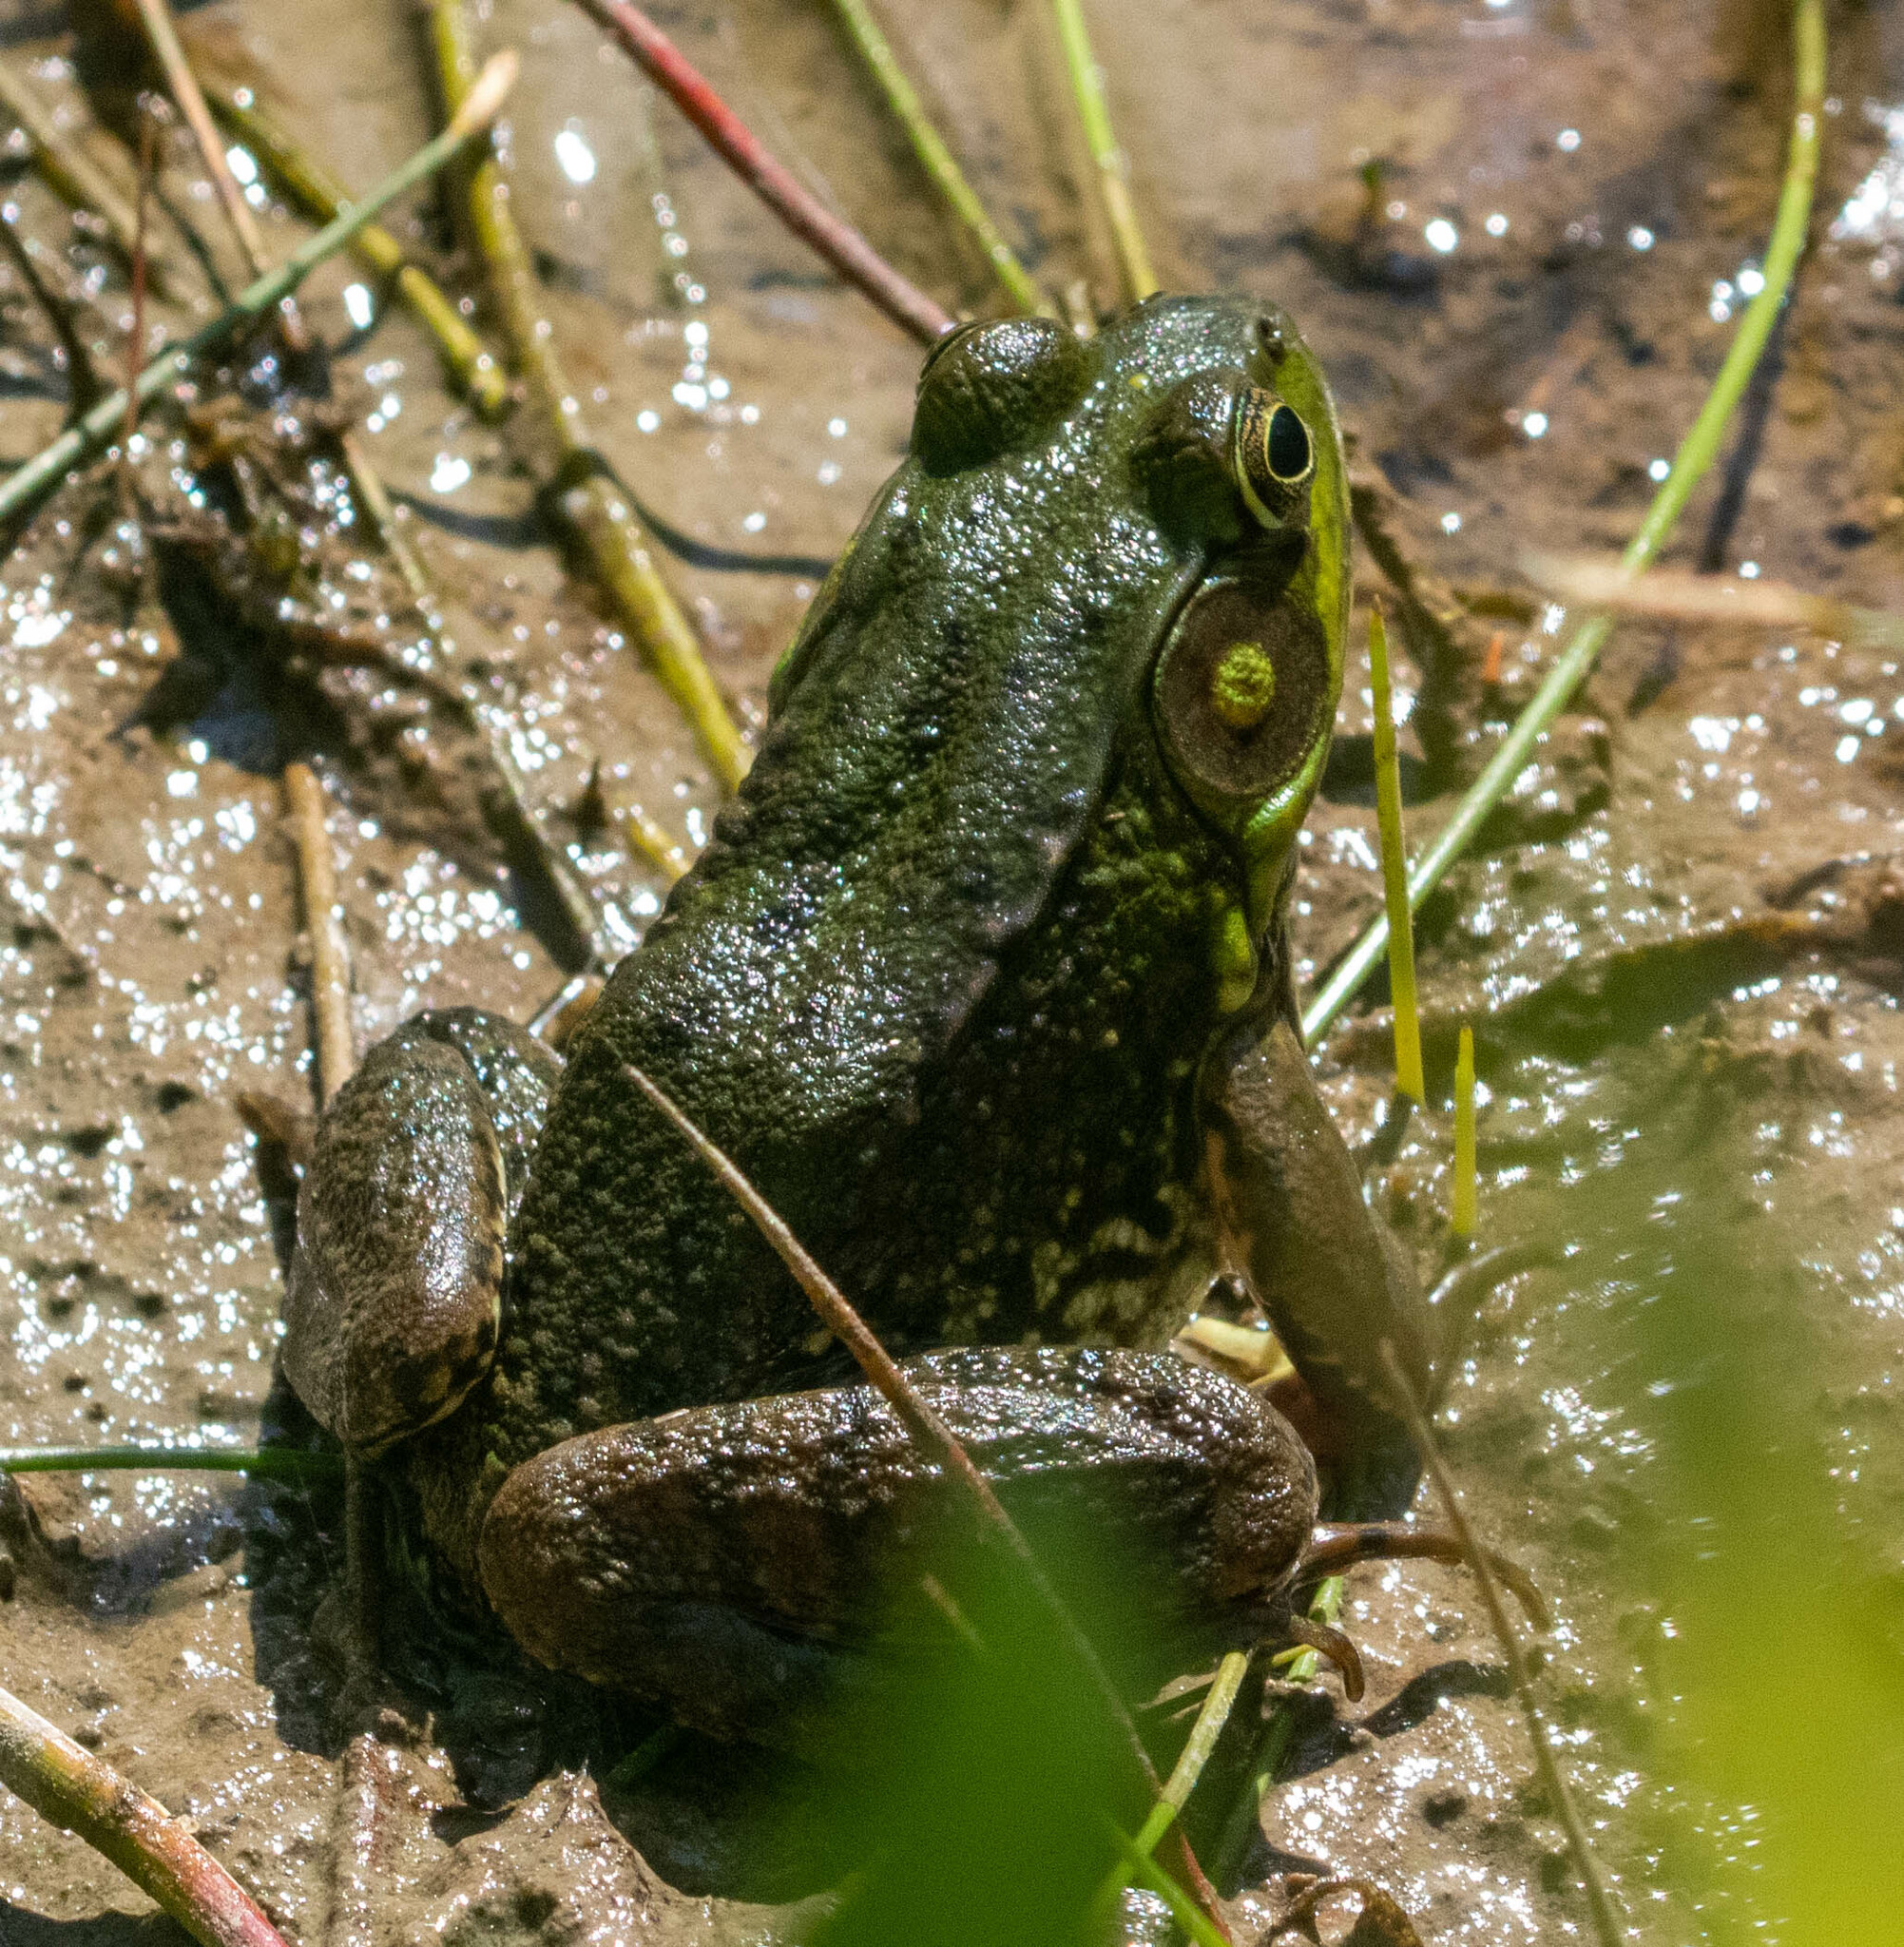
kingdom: Animalia
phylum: Chordata
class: Amphibia
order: Anura
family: Ranidae
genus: Lithobates
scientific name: Lithobates clamitans
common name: Green frog
